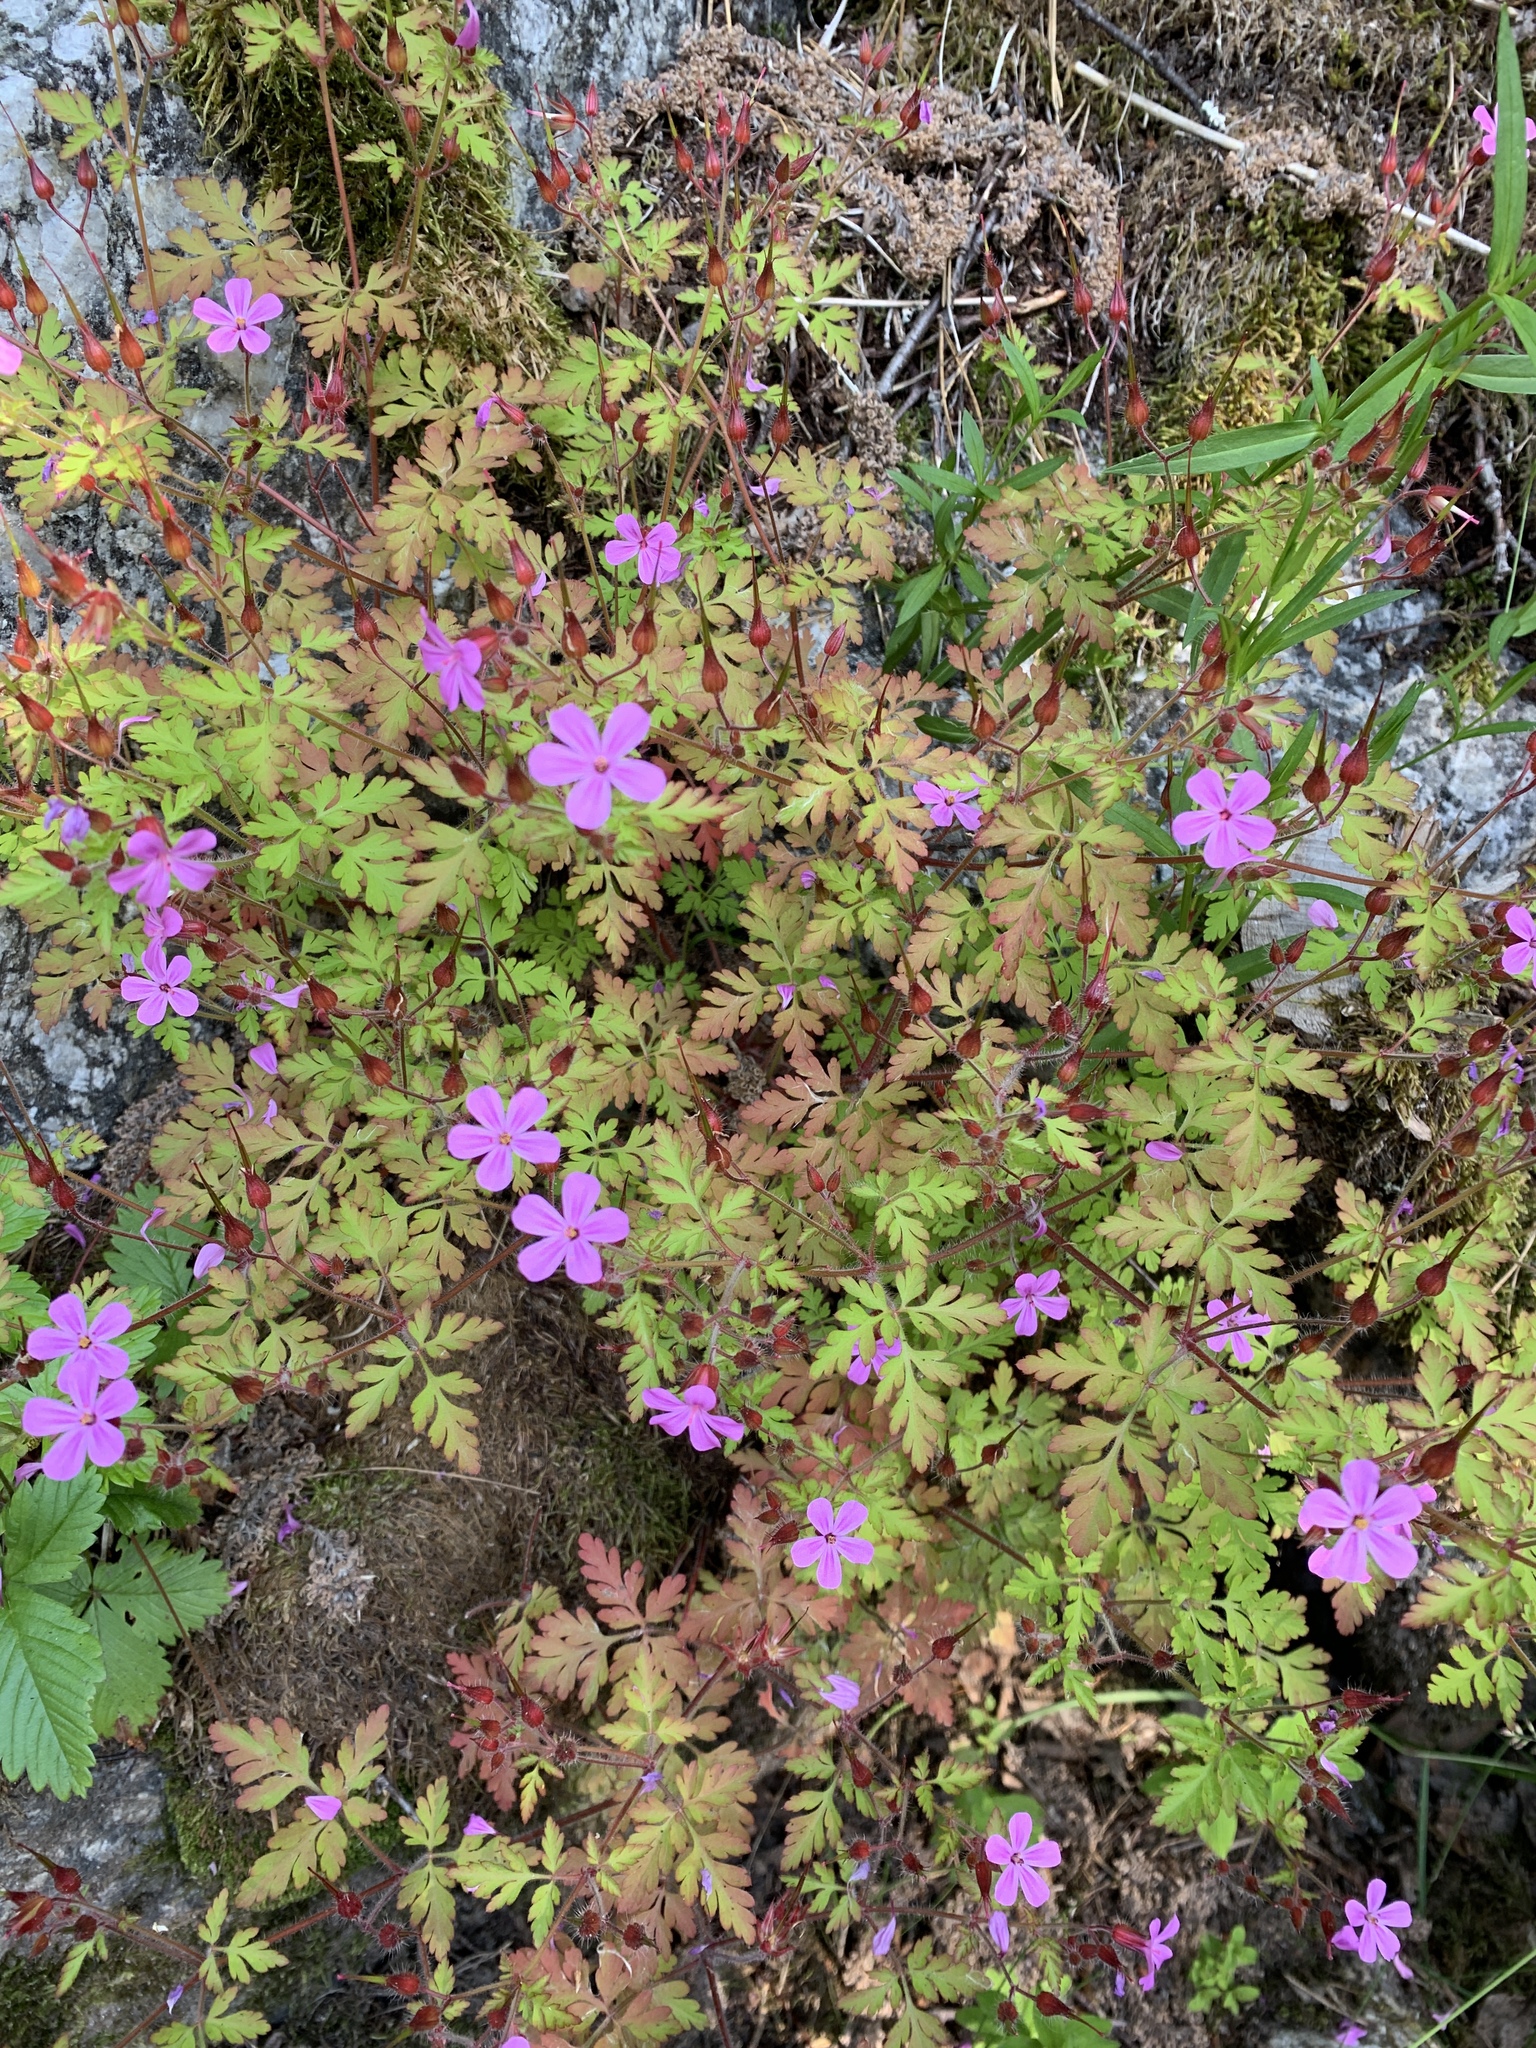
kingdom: Plantae
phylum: Tracheophyta
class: Magnoliopsida
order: Geraniales
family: Geraniaceae
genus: Geranium
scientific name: Geranium robertianum
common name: Herb-robert
